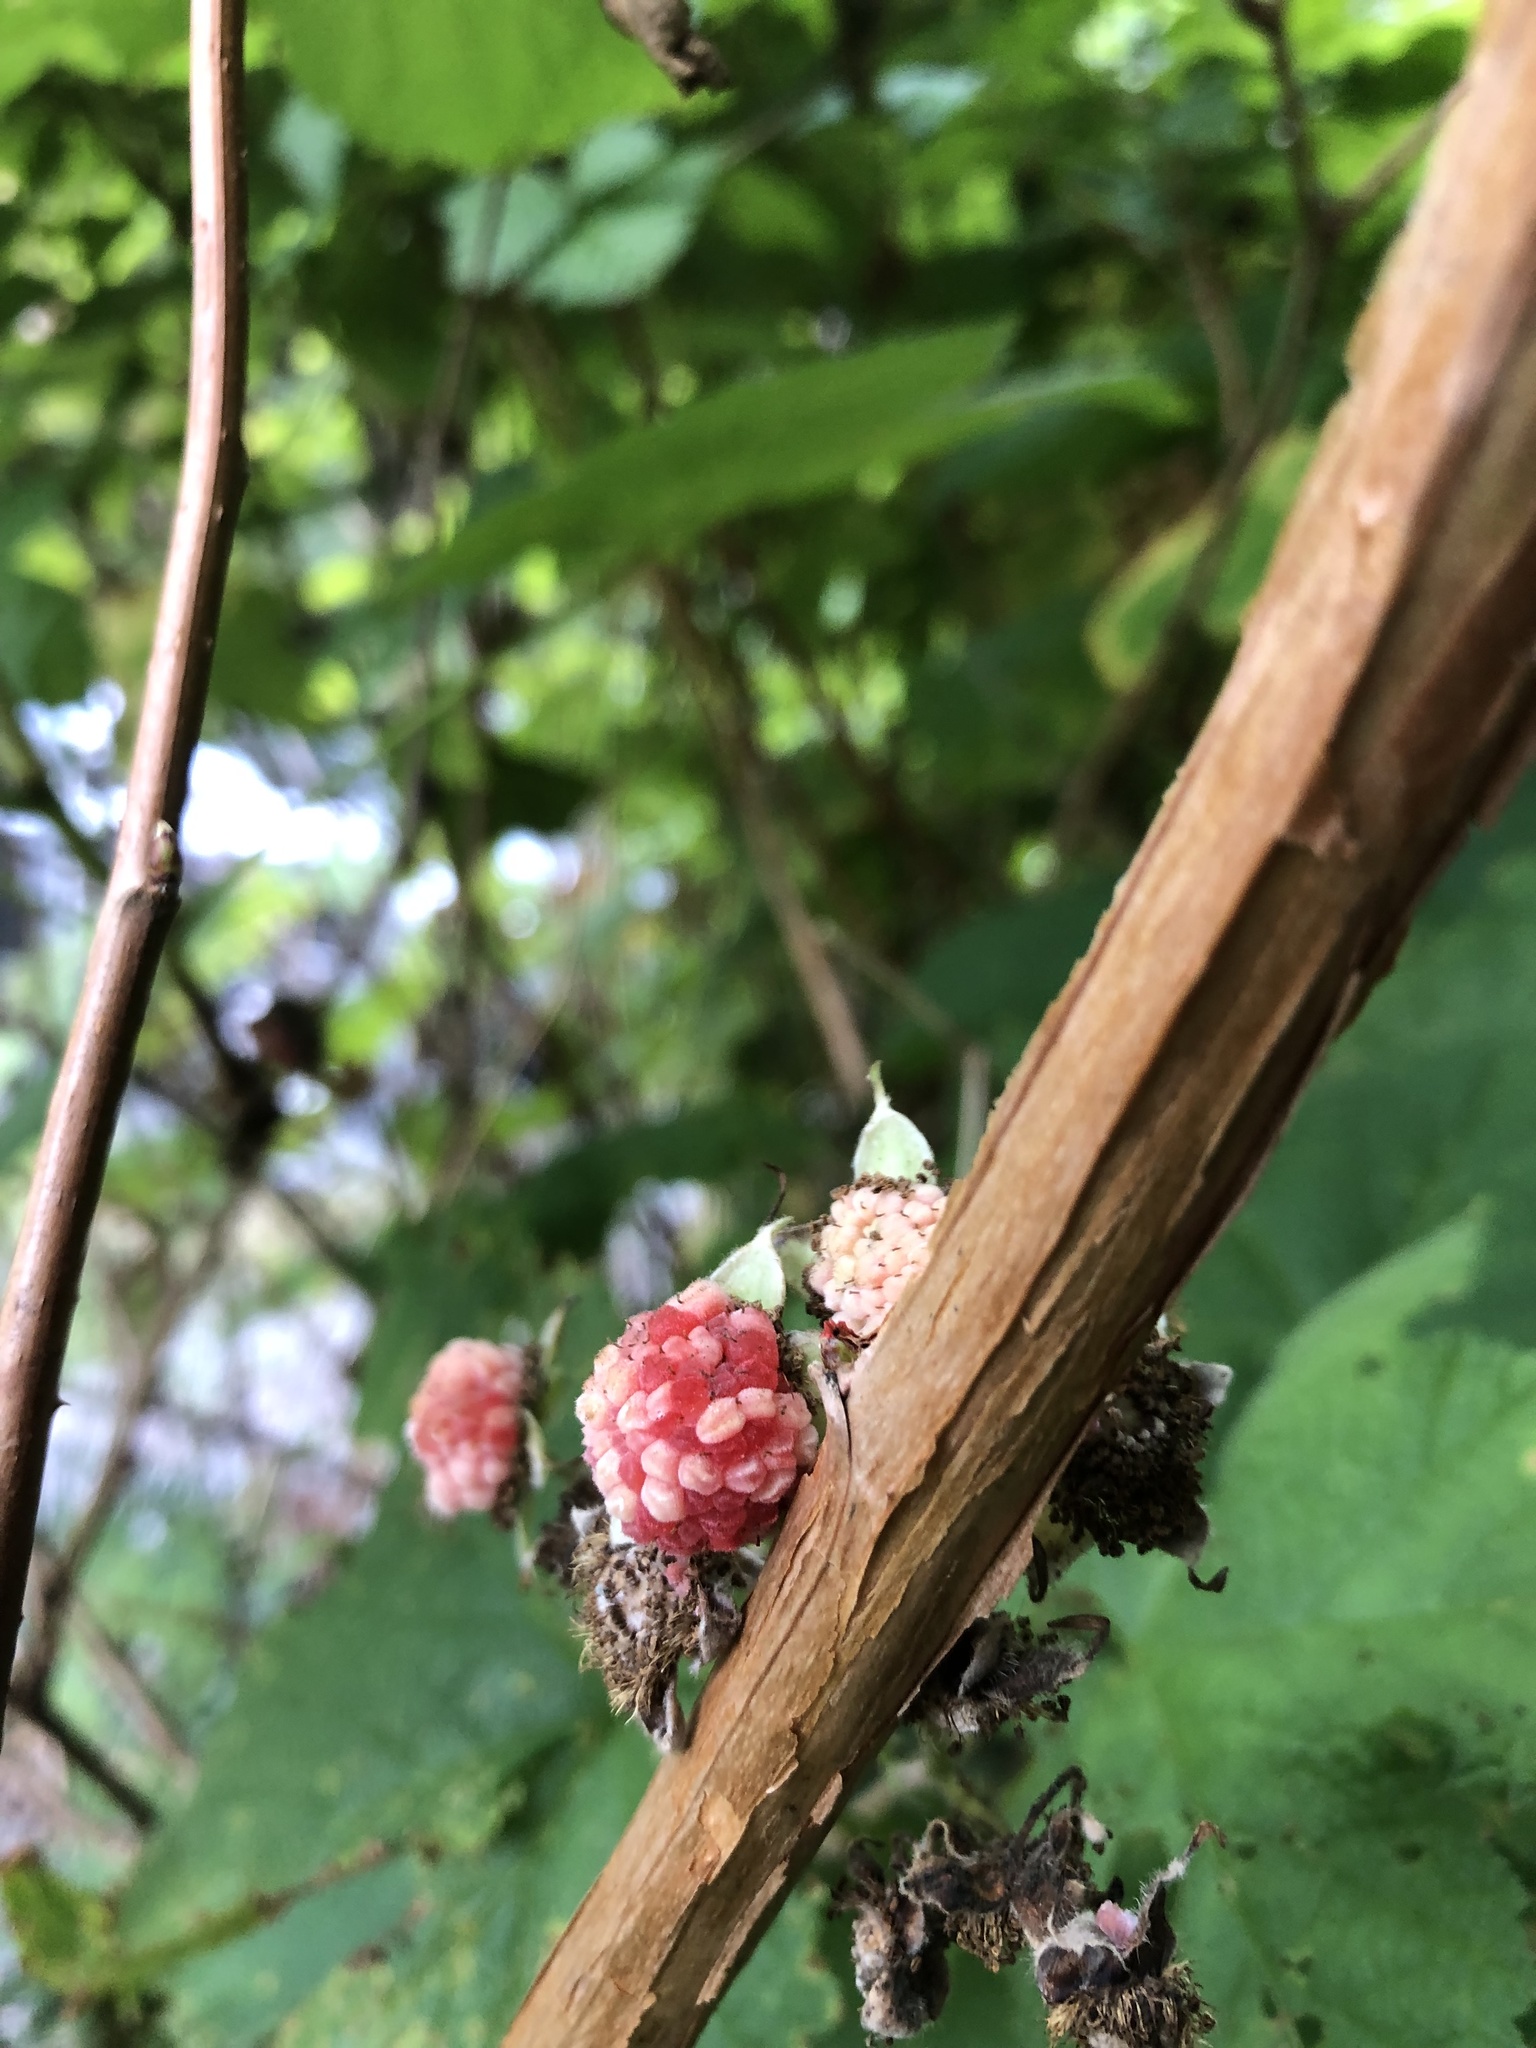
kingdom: Plantae
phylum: Tracheophyta
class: Magnoliopsida
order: Rosales
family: Rosaceae
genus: Rubus
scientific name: Rubus parviflorus
